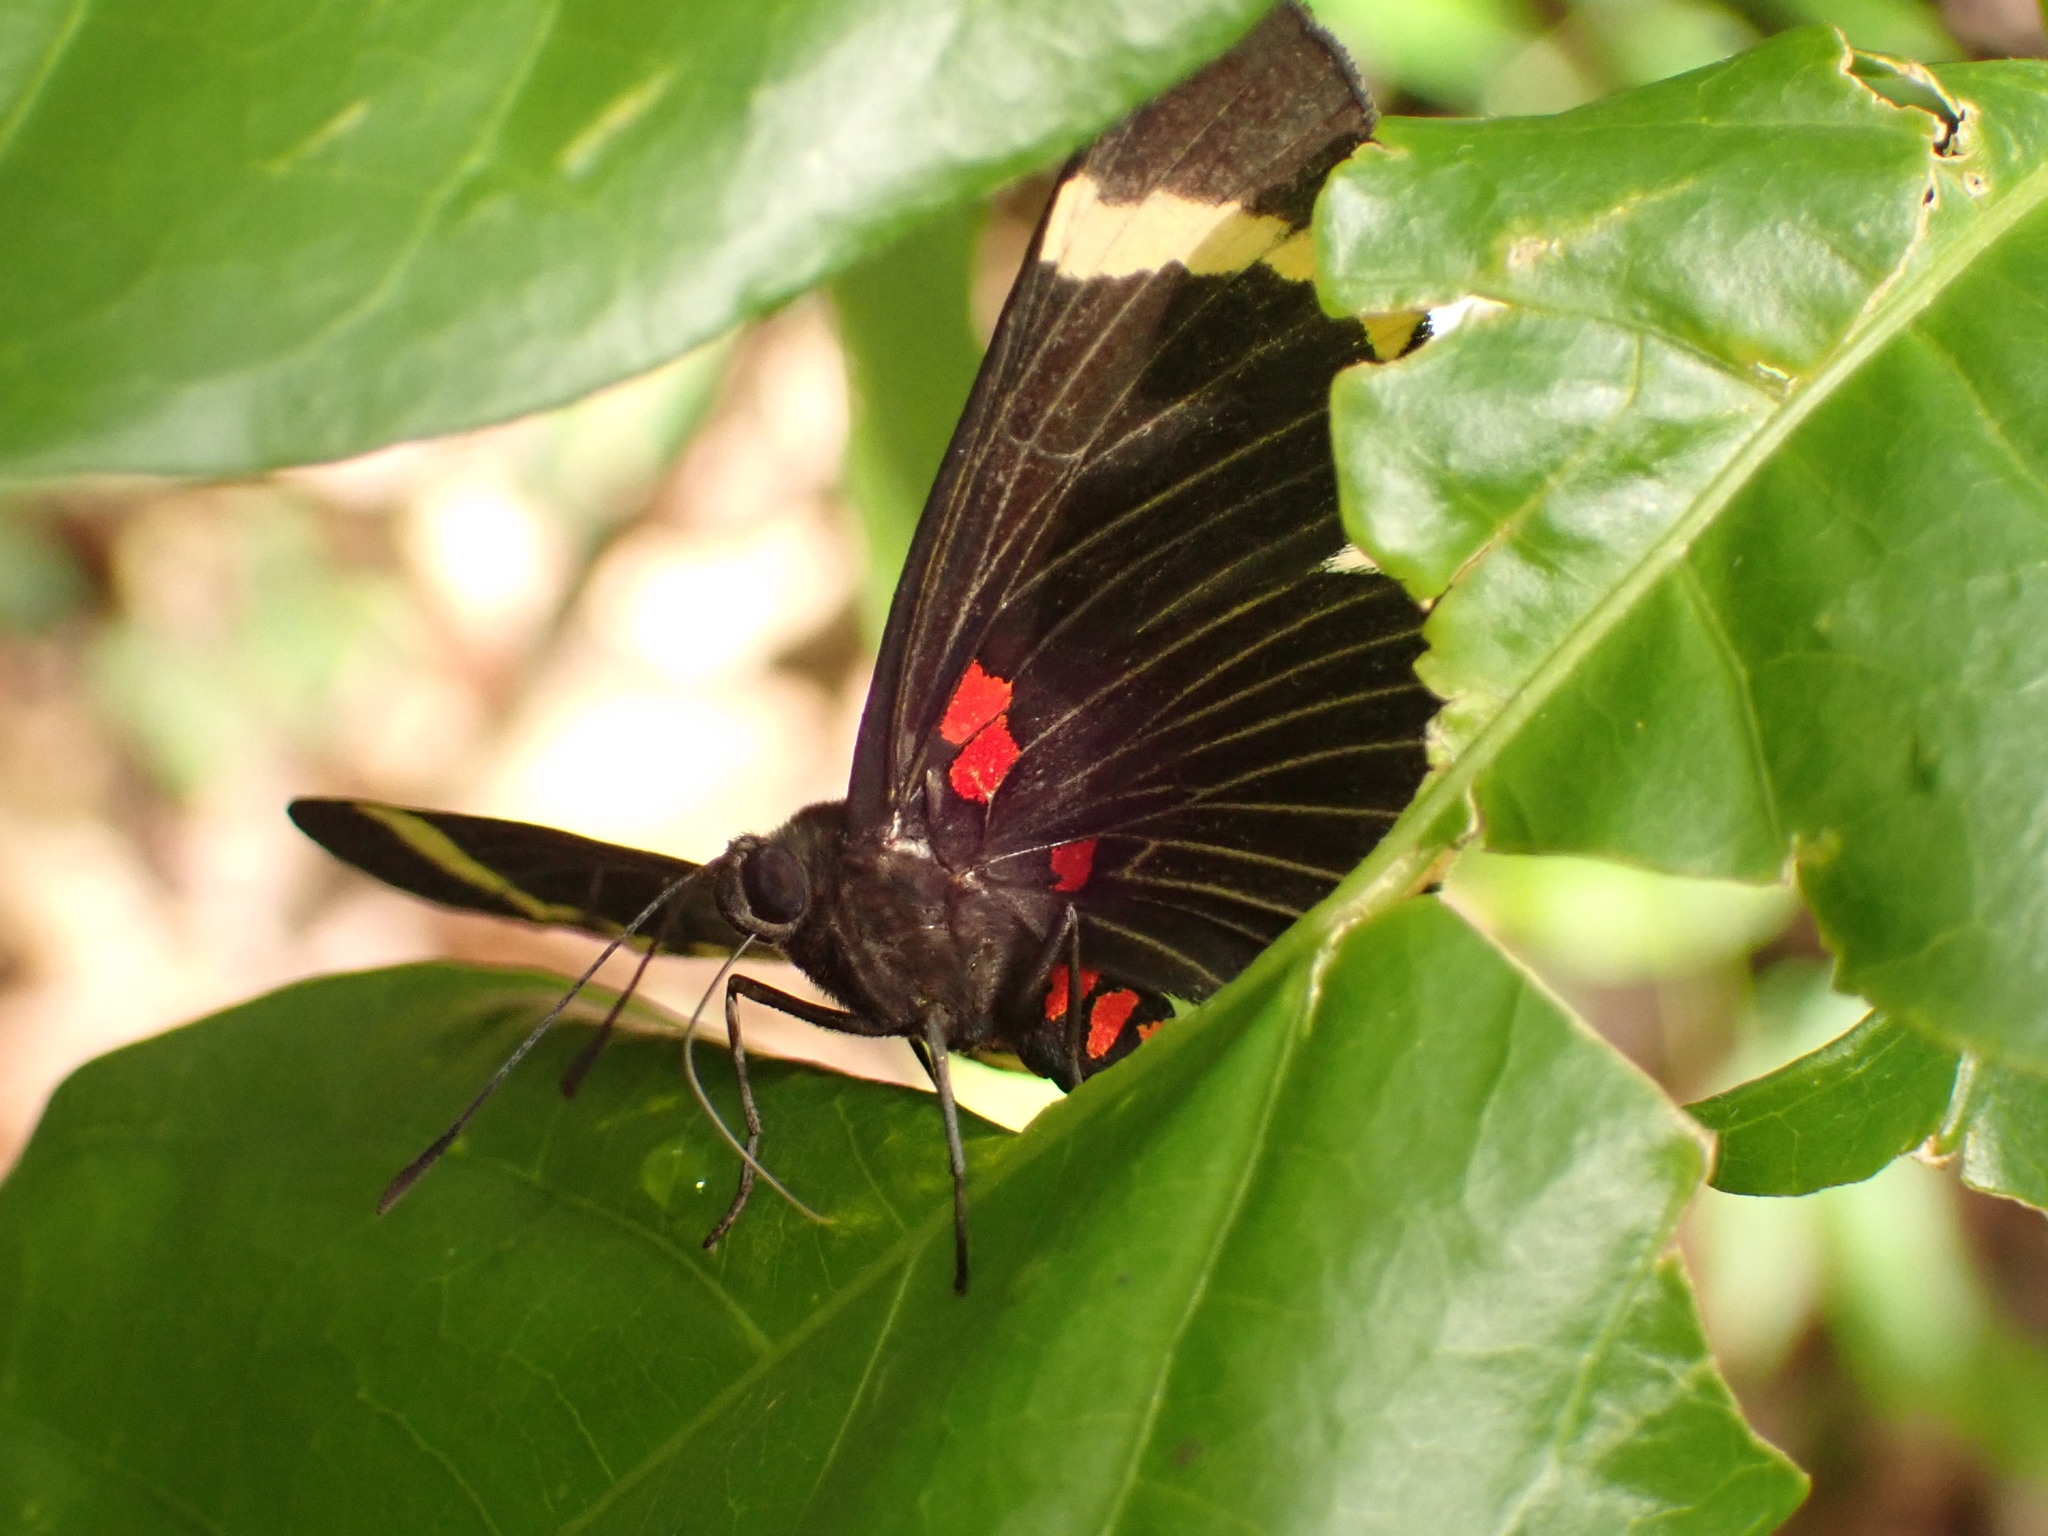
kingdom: Animalia
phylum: Arthropoda
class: Insecta
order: Lepidoptera
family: Lycaenidae
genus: Melanis
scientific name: Melanis xenia
